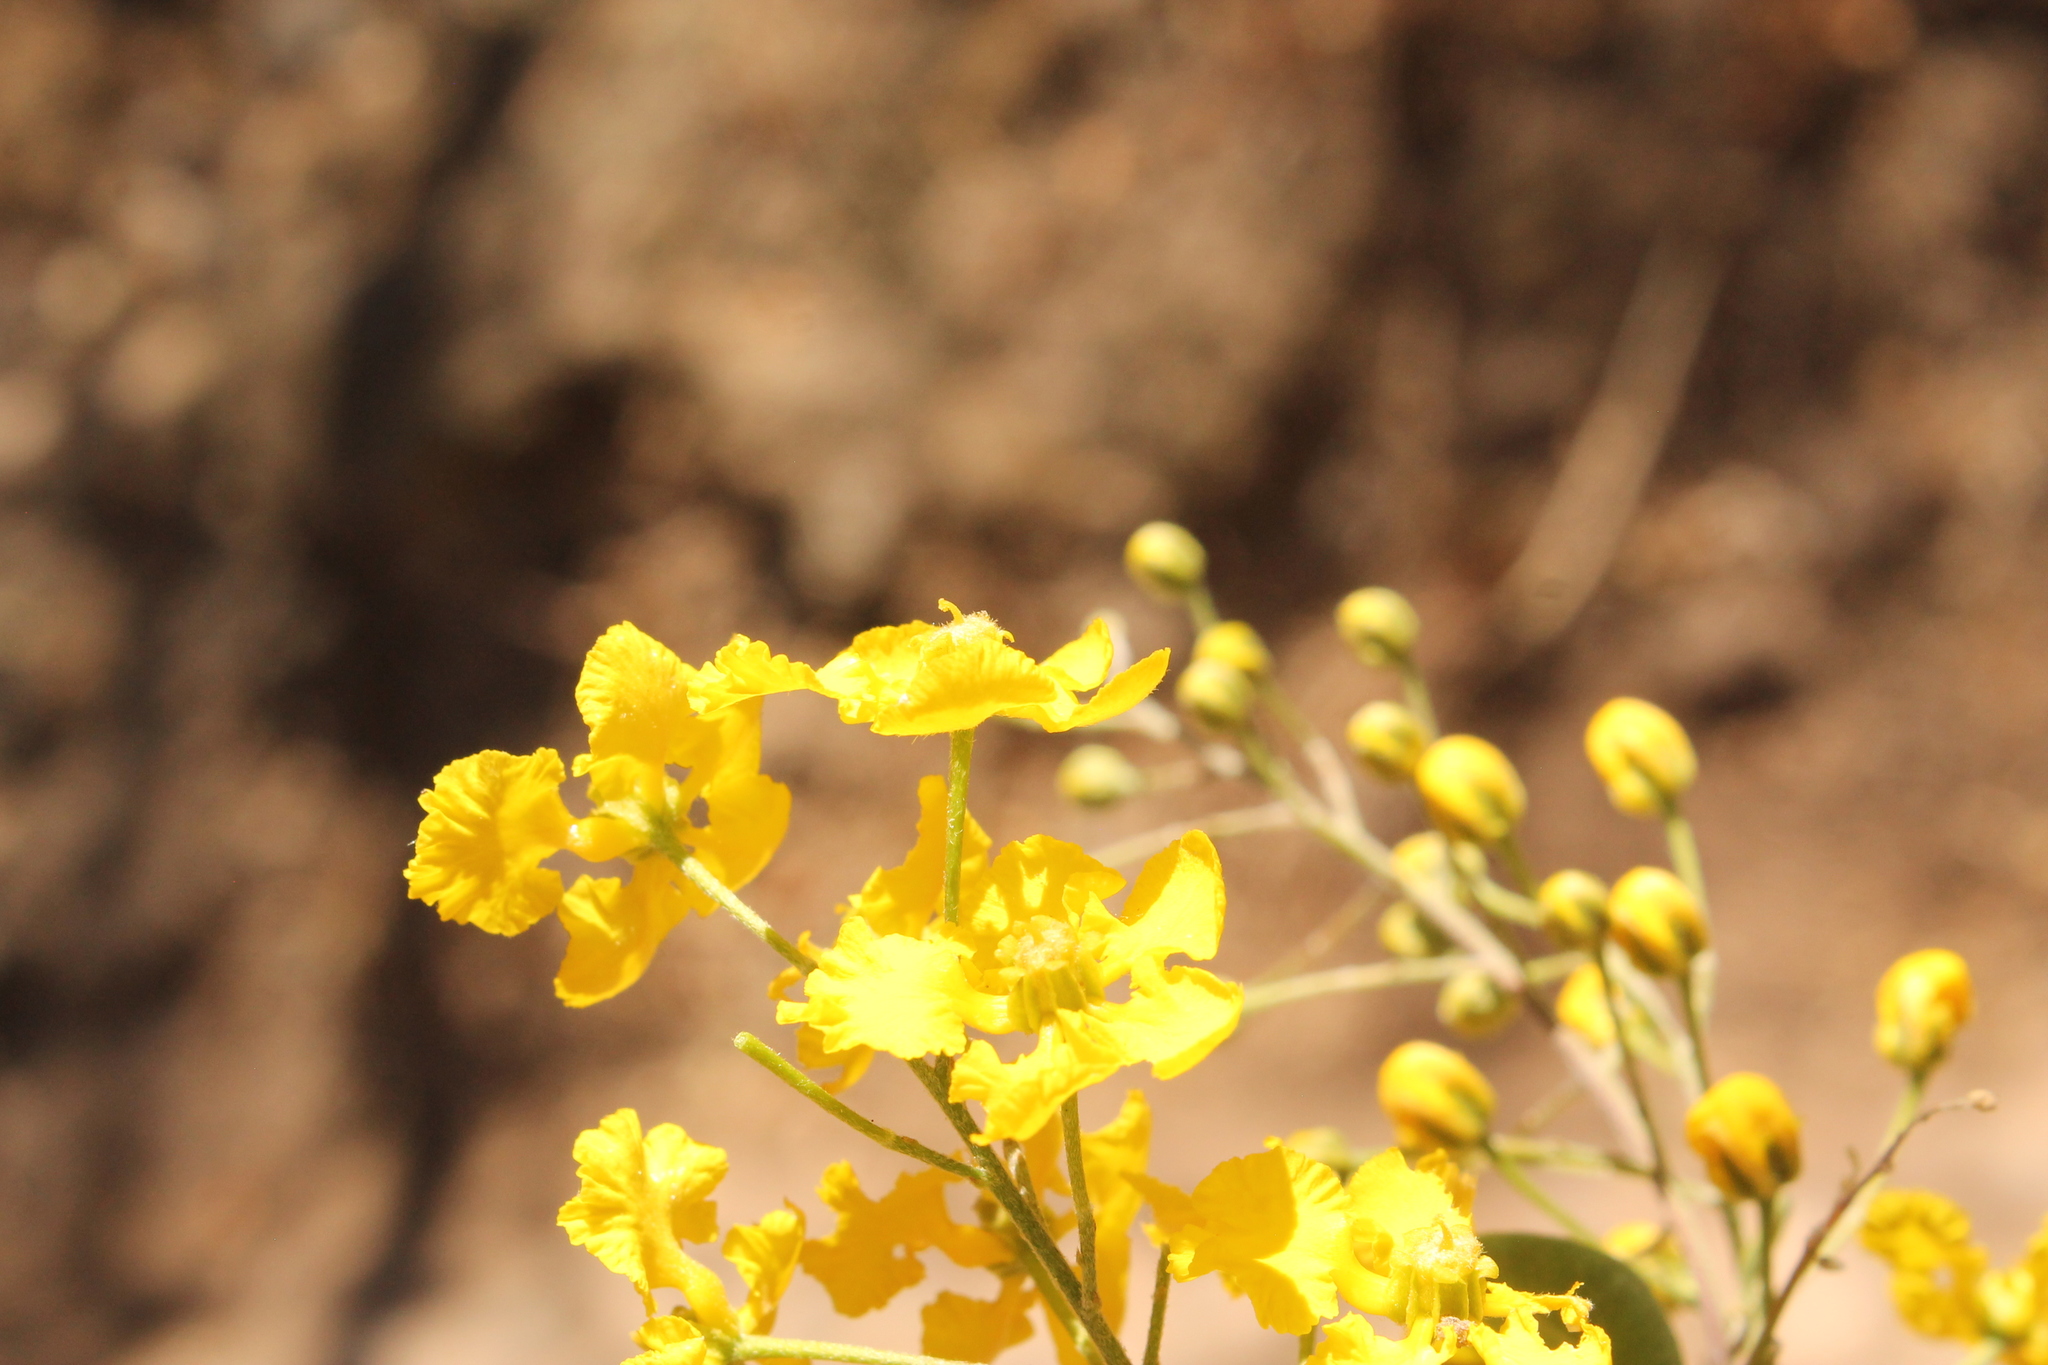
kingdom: Plantae
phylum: Tracheophyta
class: Magnoliopsida
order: Malpighiales
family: Malpighiaceae
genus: Echinopterys
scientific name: Echinopterys eglandulosa
